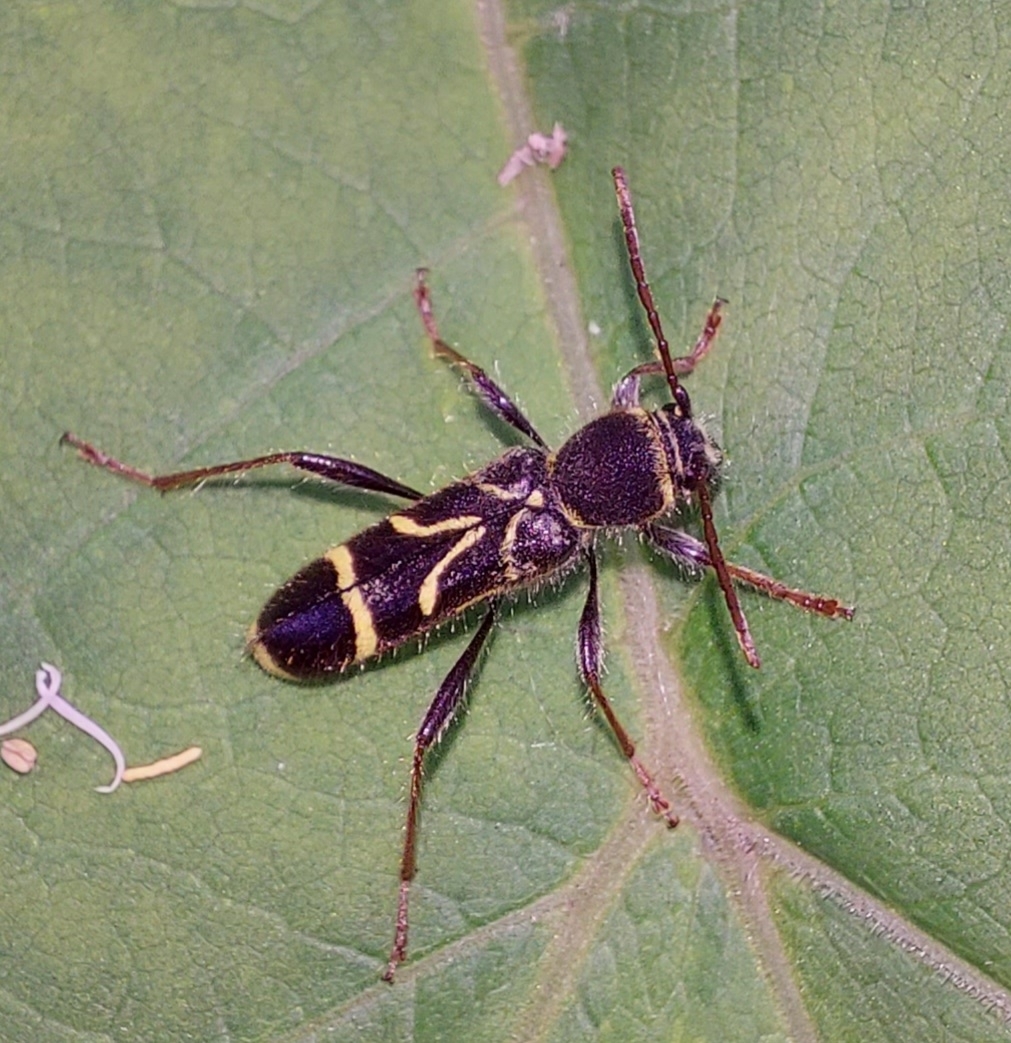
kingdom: Animalia
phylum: Arthropoda
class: Insecta
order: Coleoptera
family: Cerambycidae
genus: Cyrtoclytus
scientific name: Cyrtoclytus capra
